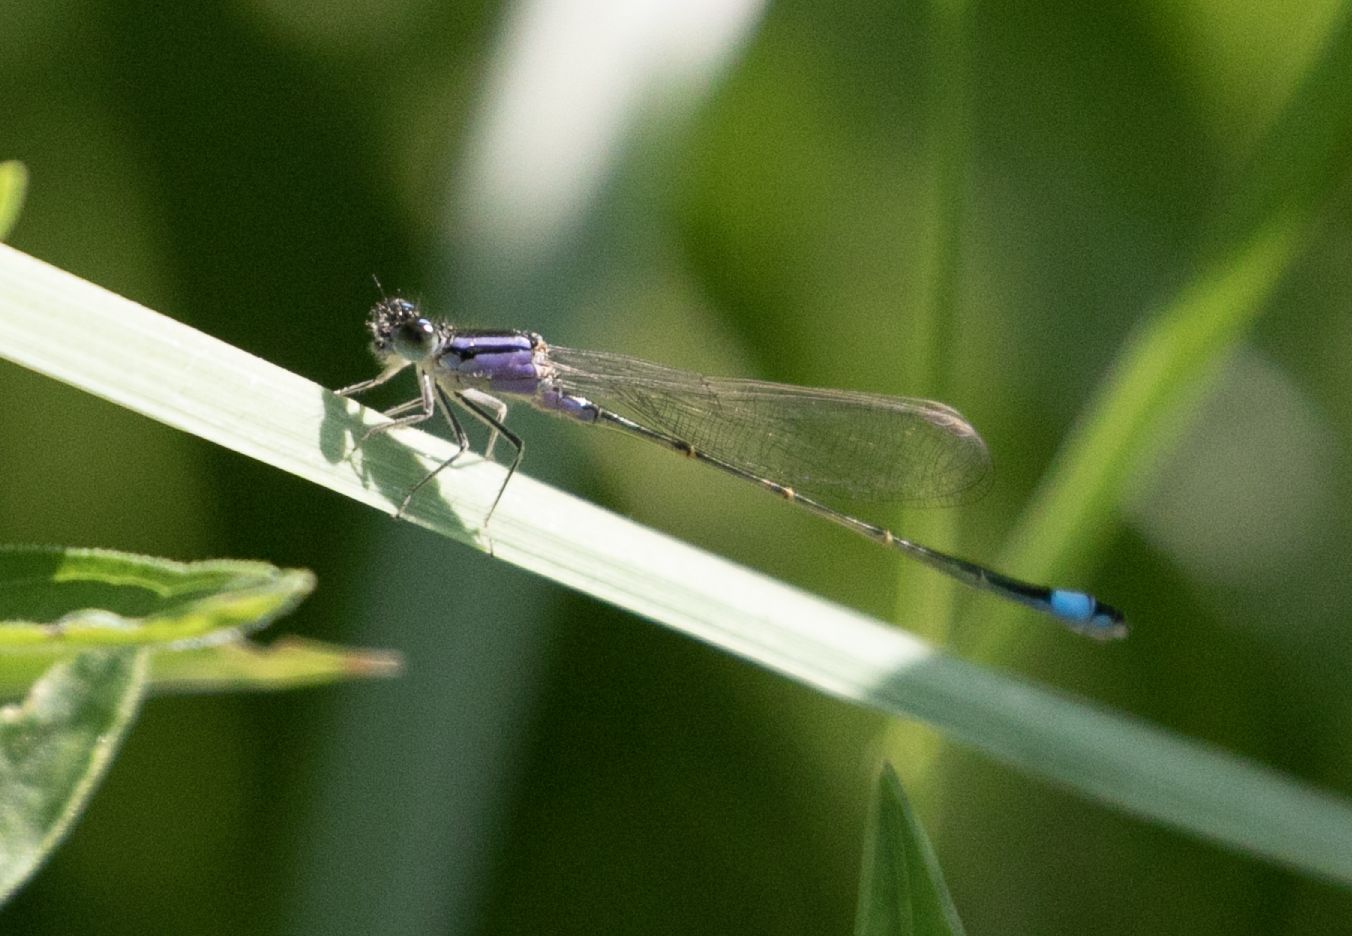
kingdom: Animalia
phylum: Arthropoda
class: Insecta
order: Odonata
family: Coenagrionidae
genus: Ischnura
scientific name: Ischnura elegans
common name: Blue-tailed damselfly
